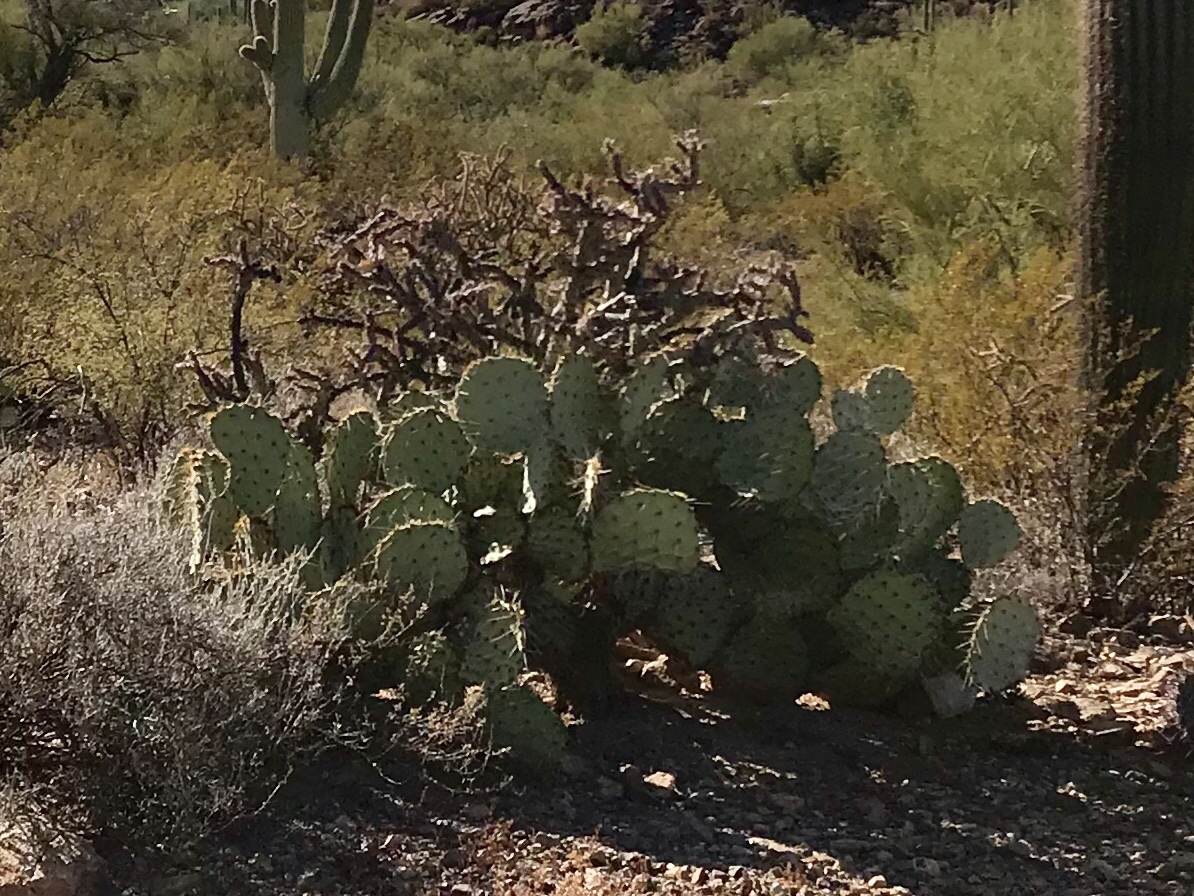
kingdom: Plantae
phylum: Tracheophyta
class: Magnoliopsida
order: Caryophyllales
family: Cactaceae
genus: Opuntia
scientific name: Opuntia engelmannii
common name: Cactus-apple
